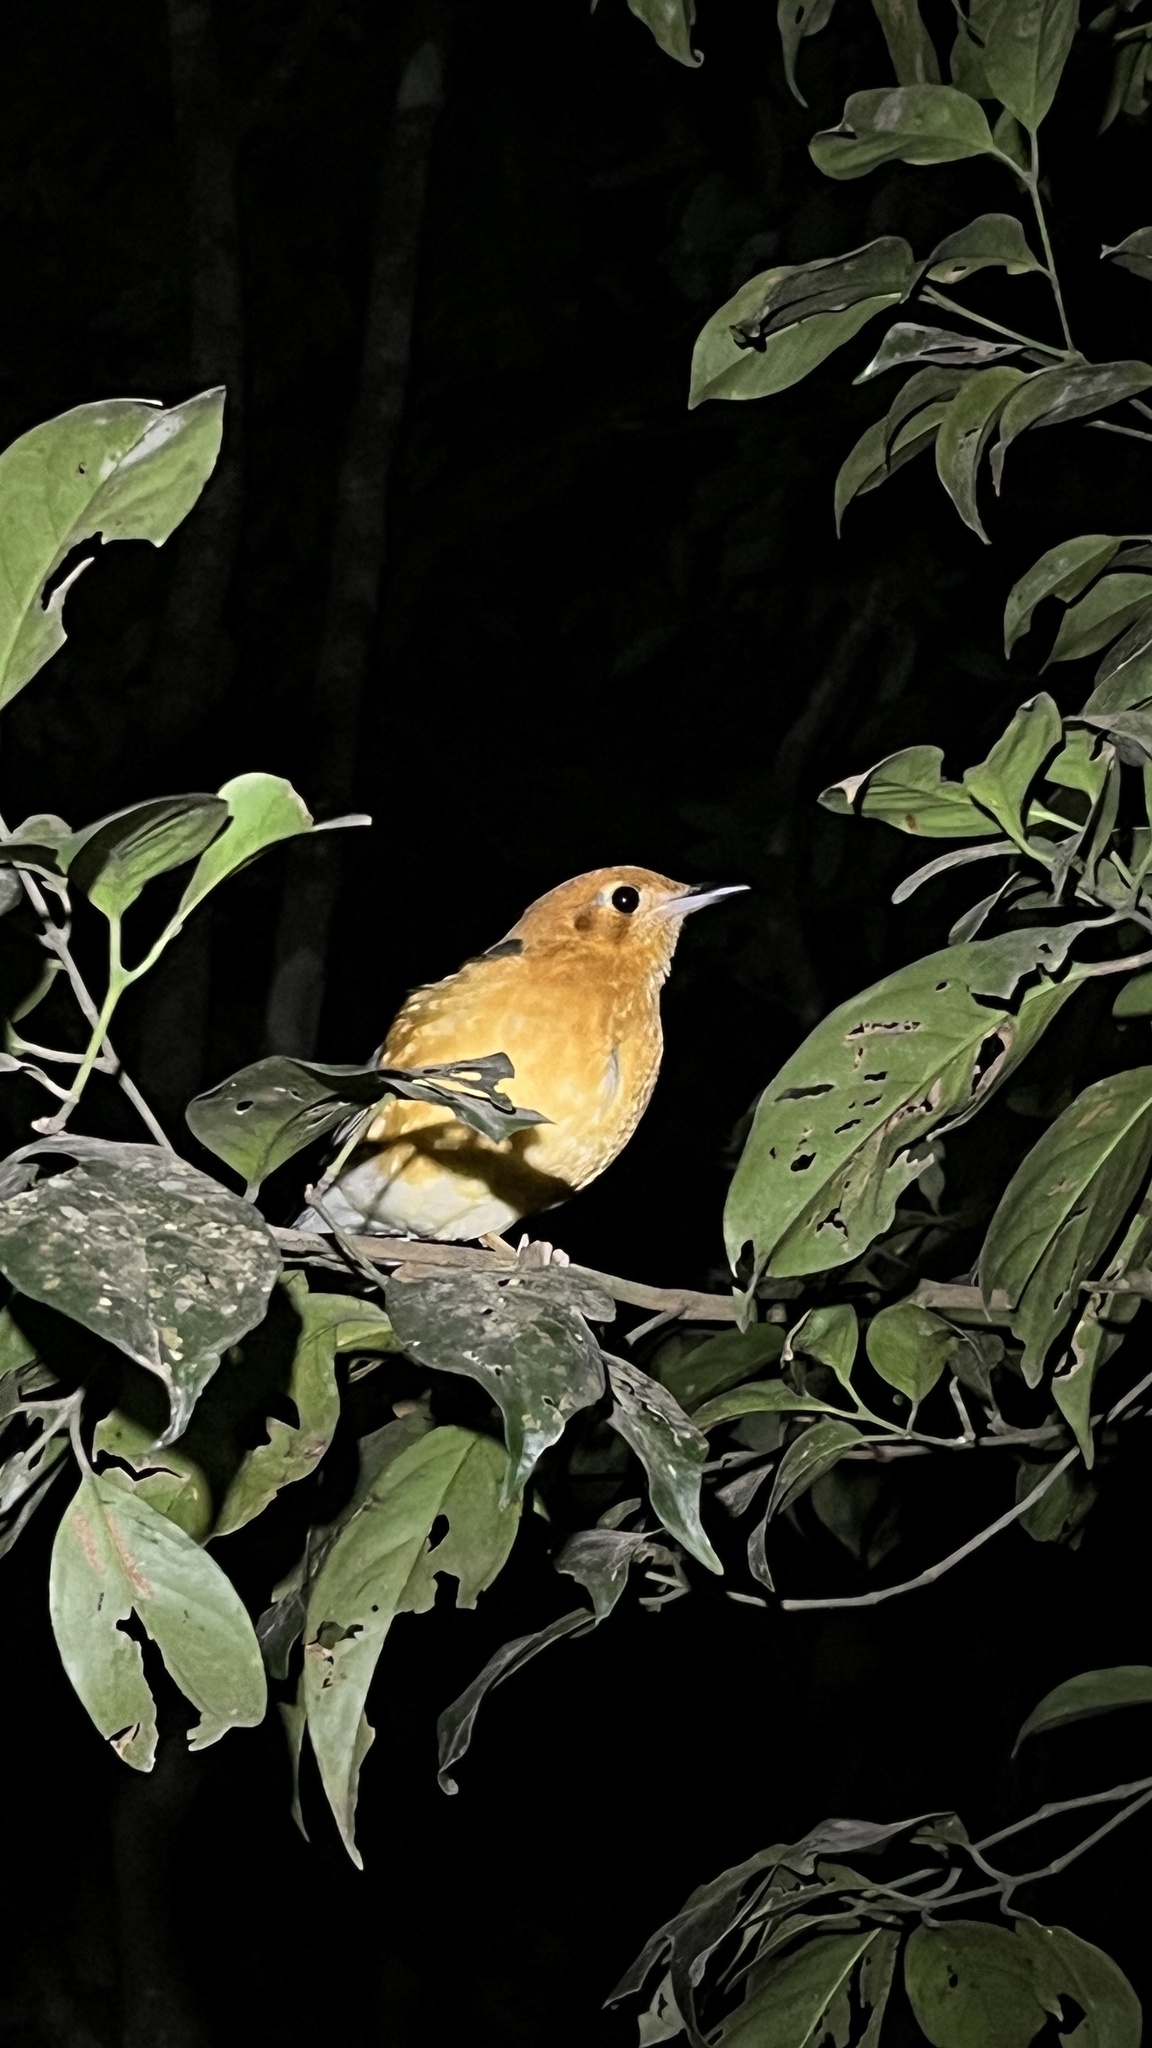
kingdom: Animalia
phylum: Chordata
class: Aves
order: Passeriformes
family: Turdidae
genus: Geokichla
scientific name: Geokichla citrina
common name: Orange-headed thrush
